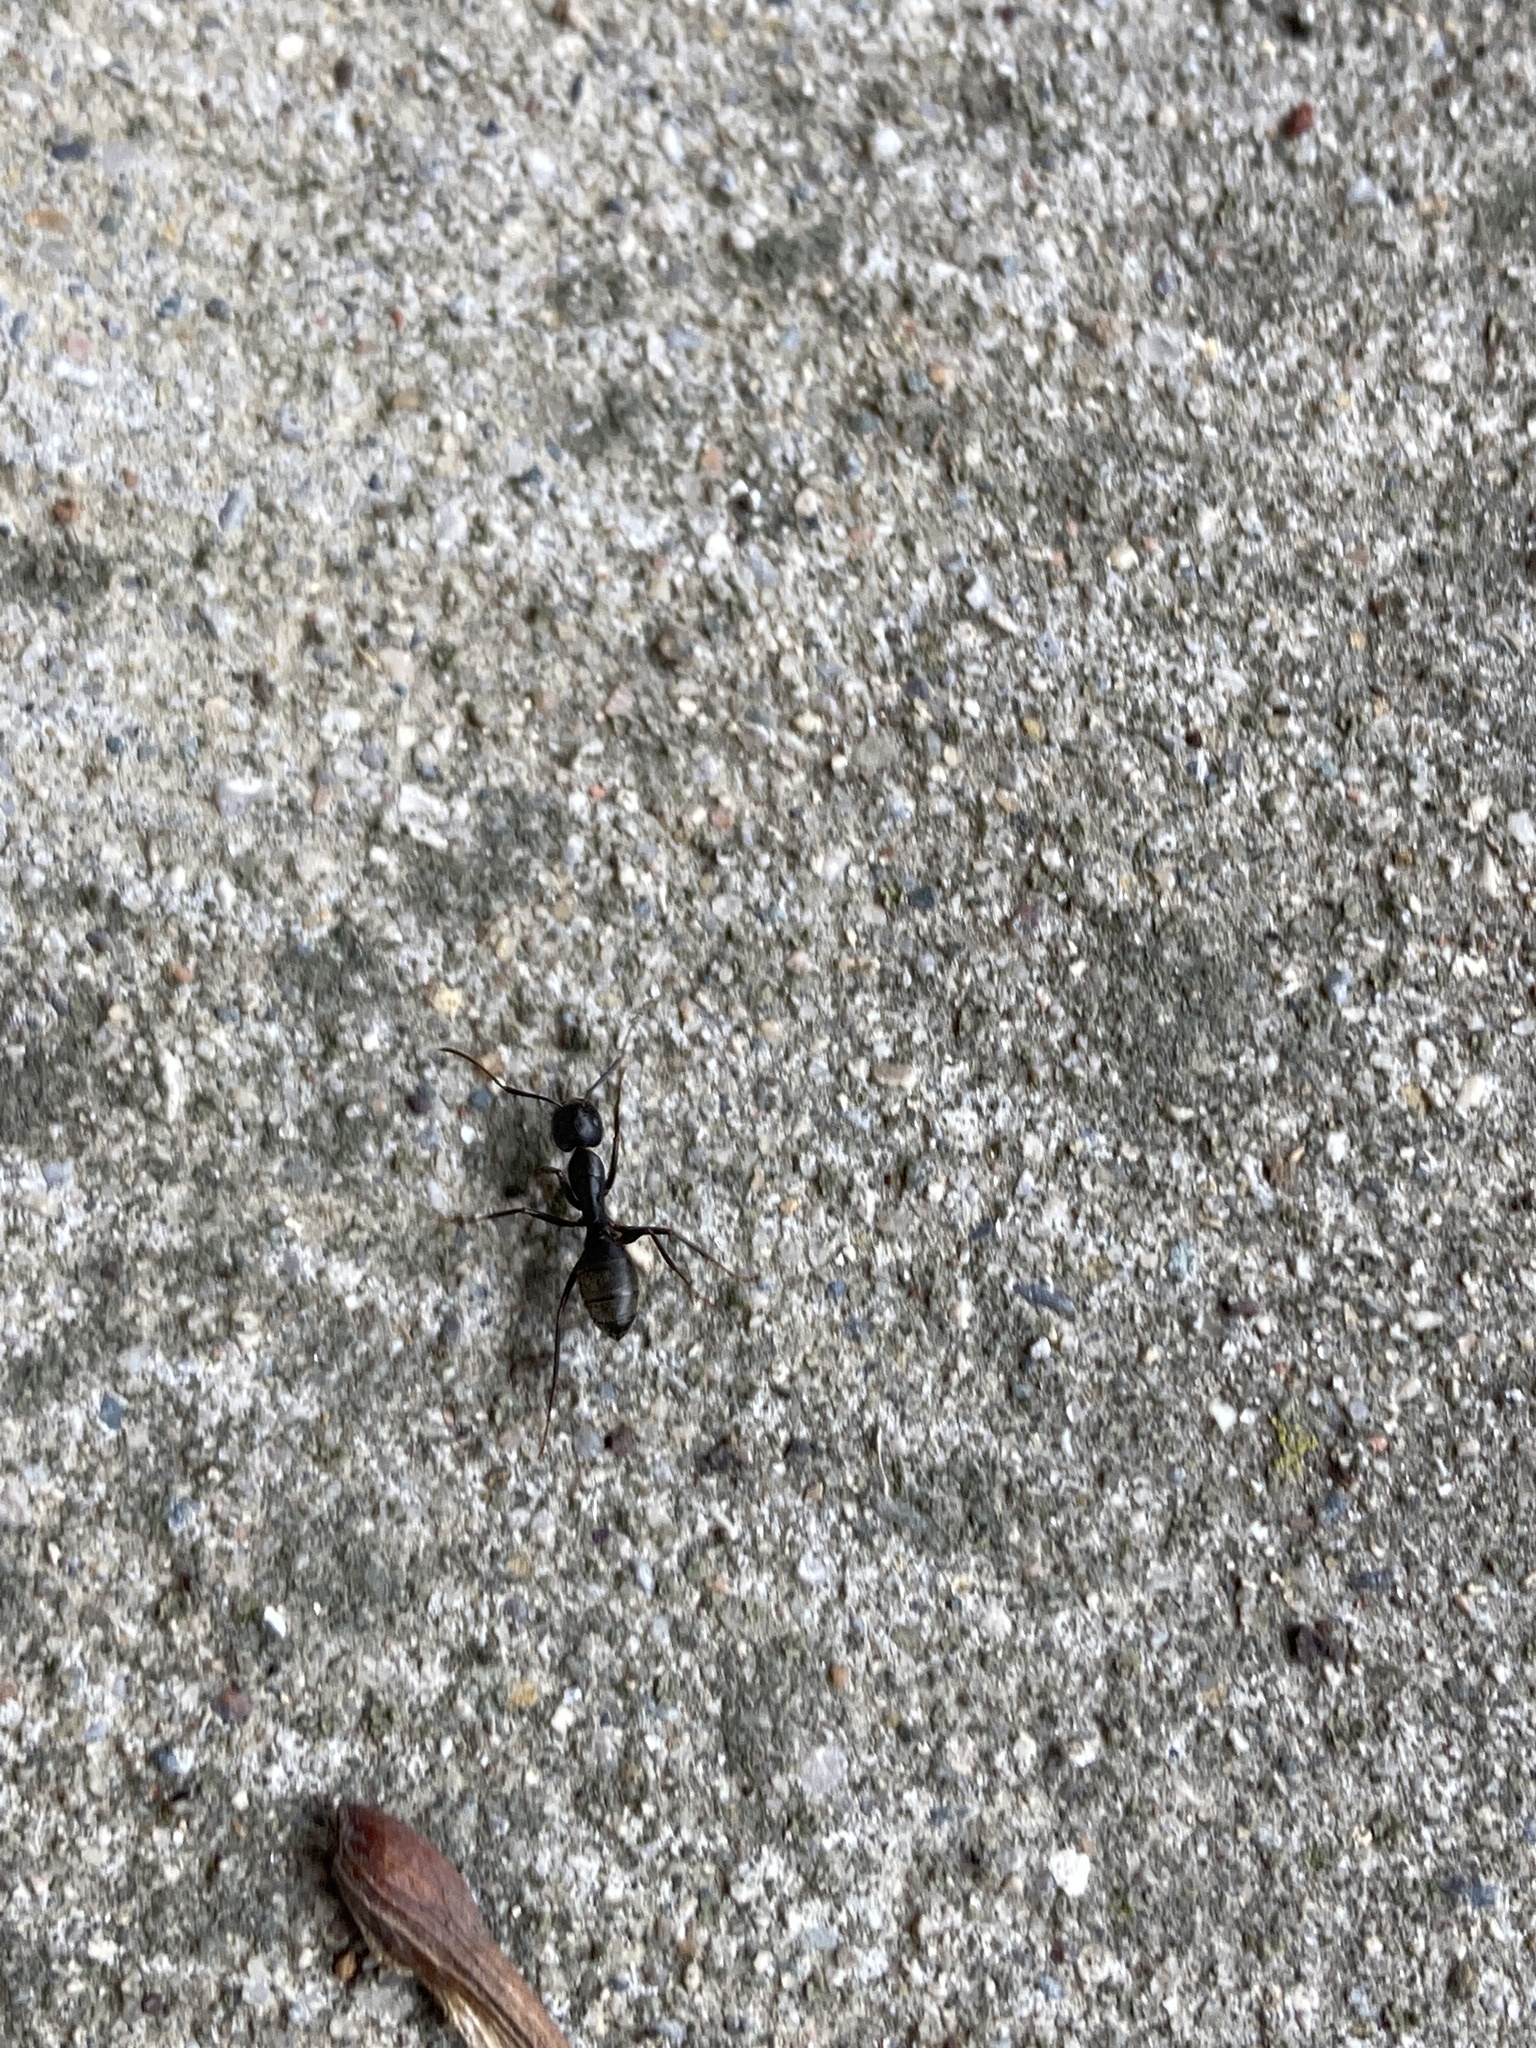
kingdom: Animalia
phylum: Arthropoda
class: Insecta
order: Hymenoptera
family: Formicidae
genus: Camponotus
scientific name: Camponotus pennsylvanicus
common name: Black carpenter ant
